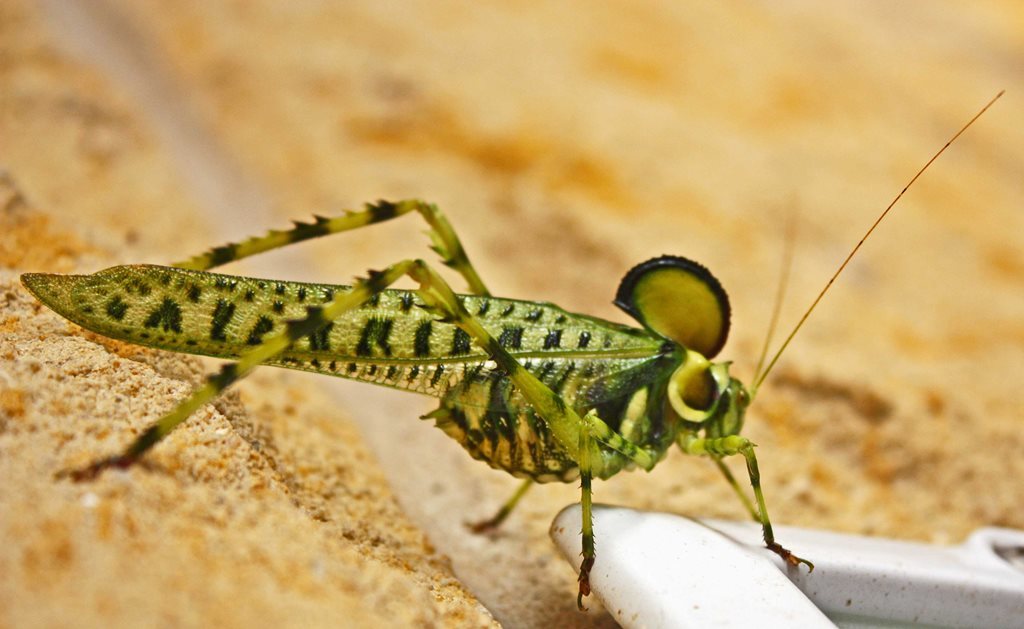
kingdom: Animalia
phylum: Arthropoda
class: Insecta
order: Orthoptera
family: Tettigoniidae
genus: Alectoria
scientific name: Alectoria superba
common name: Australian crested katydid
